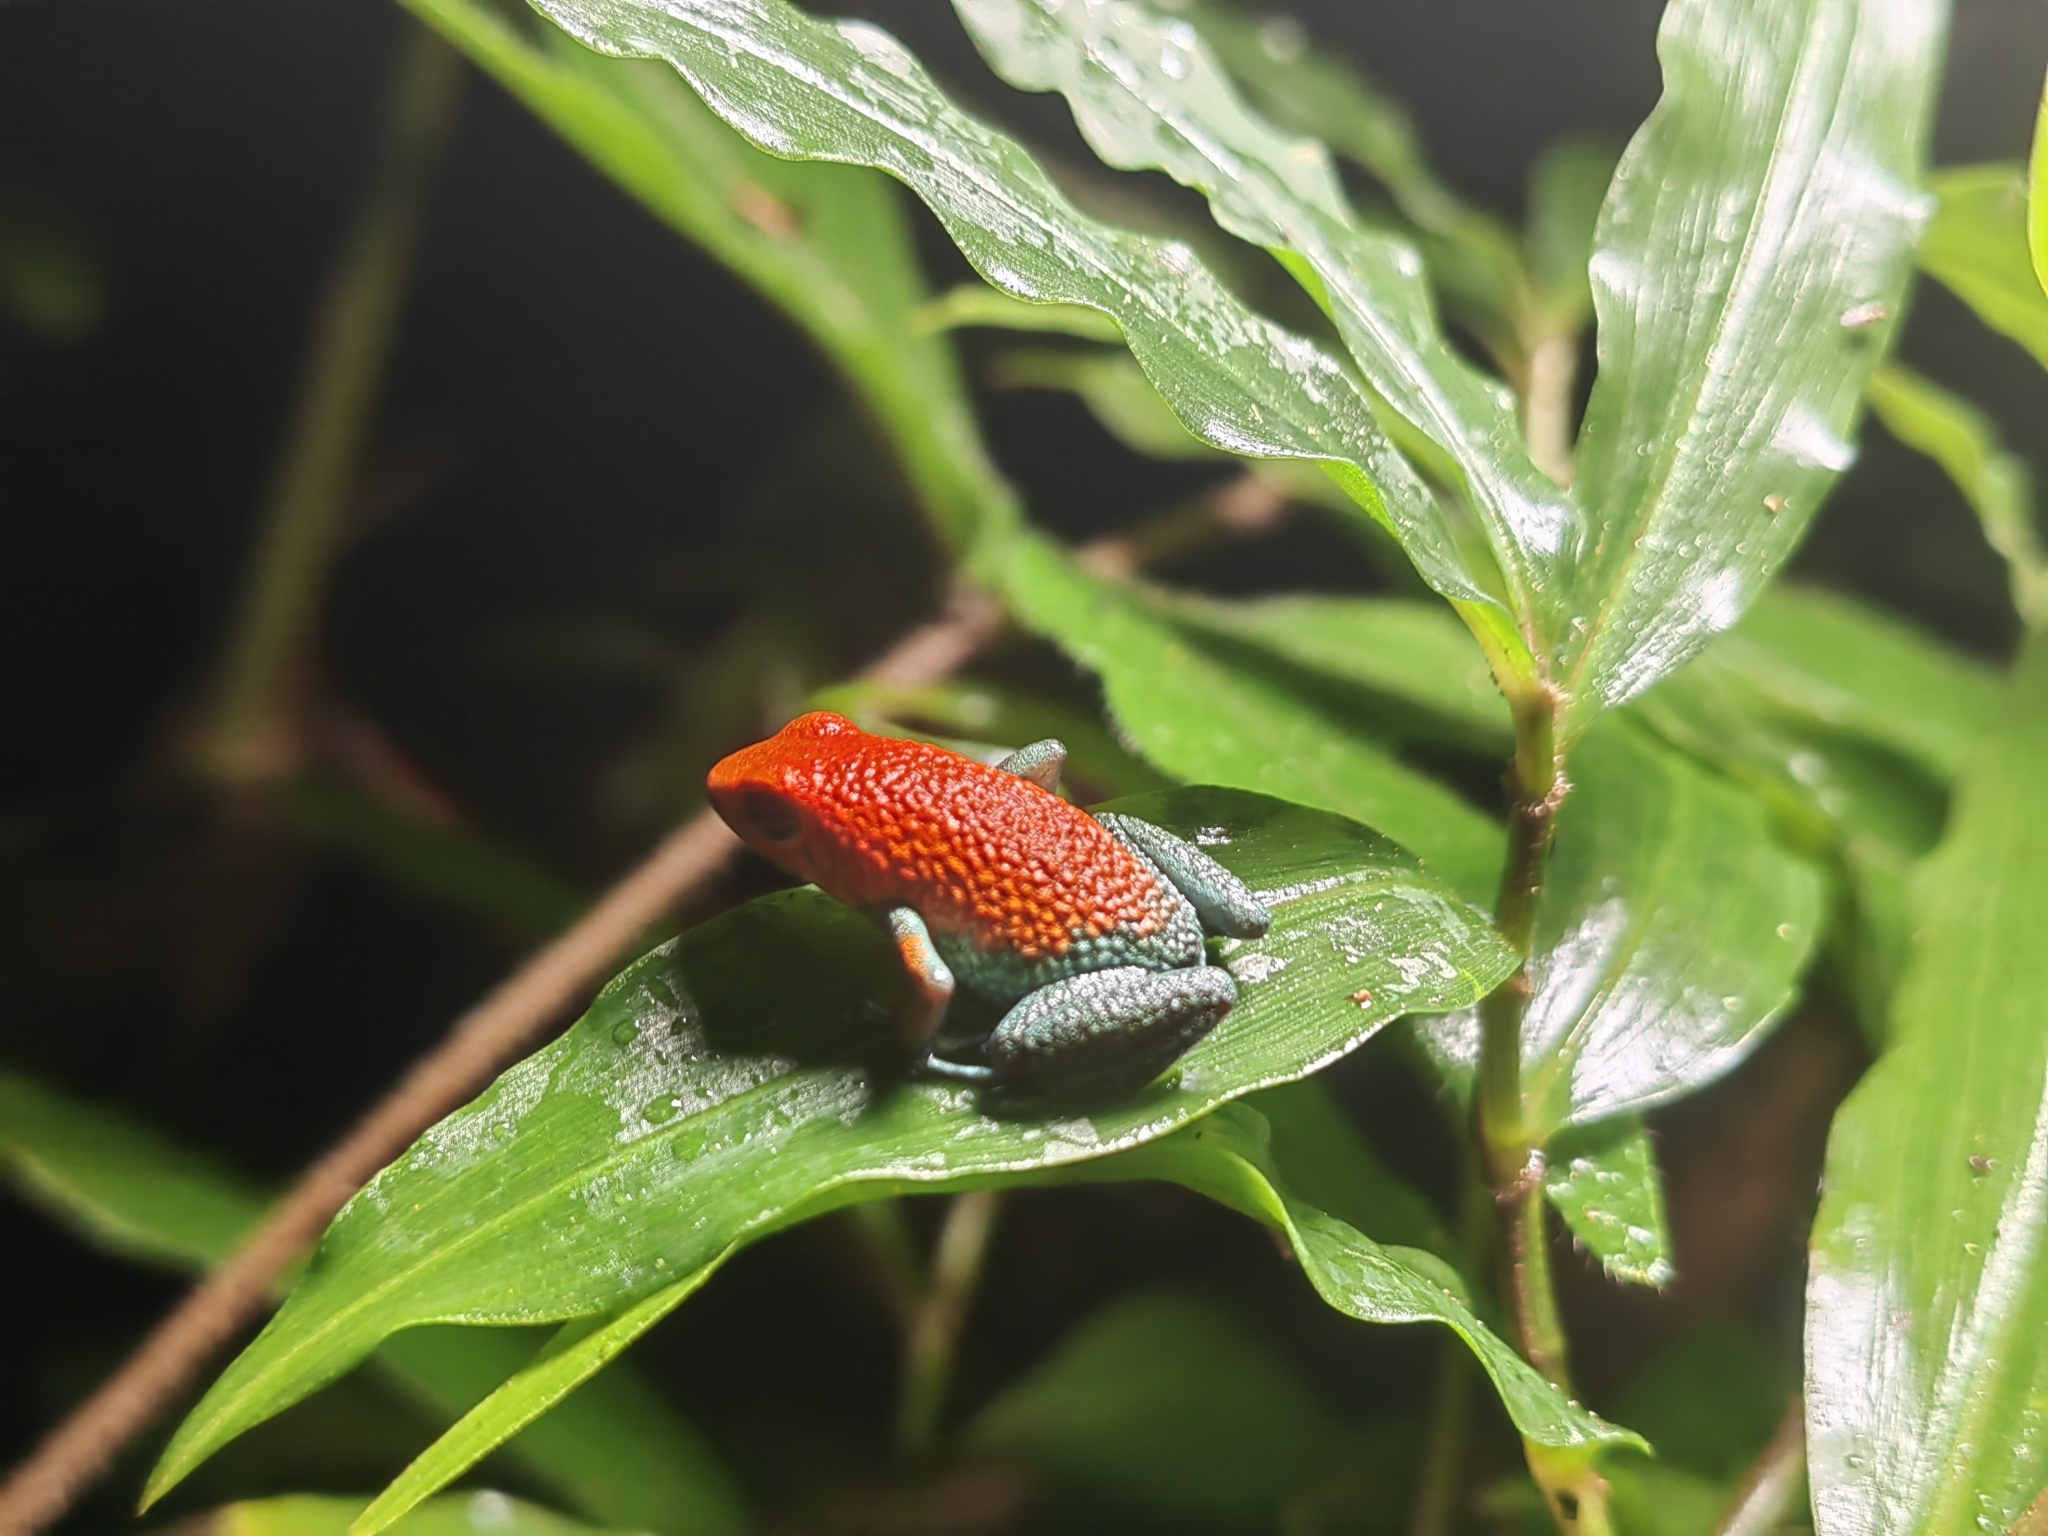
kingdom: Animalia
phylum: Chordata
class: Amphibia
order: Anura
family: Dendrobatidae
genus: Oophaga
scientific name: Oophaga granulifera
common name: Granular poison frog
